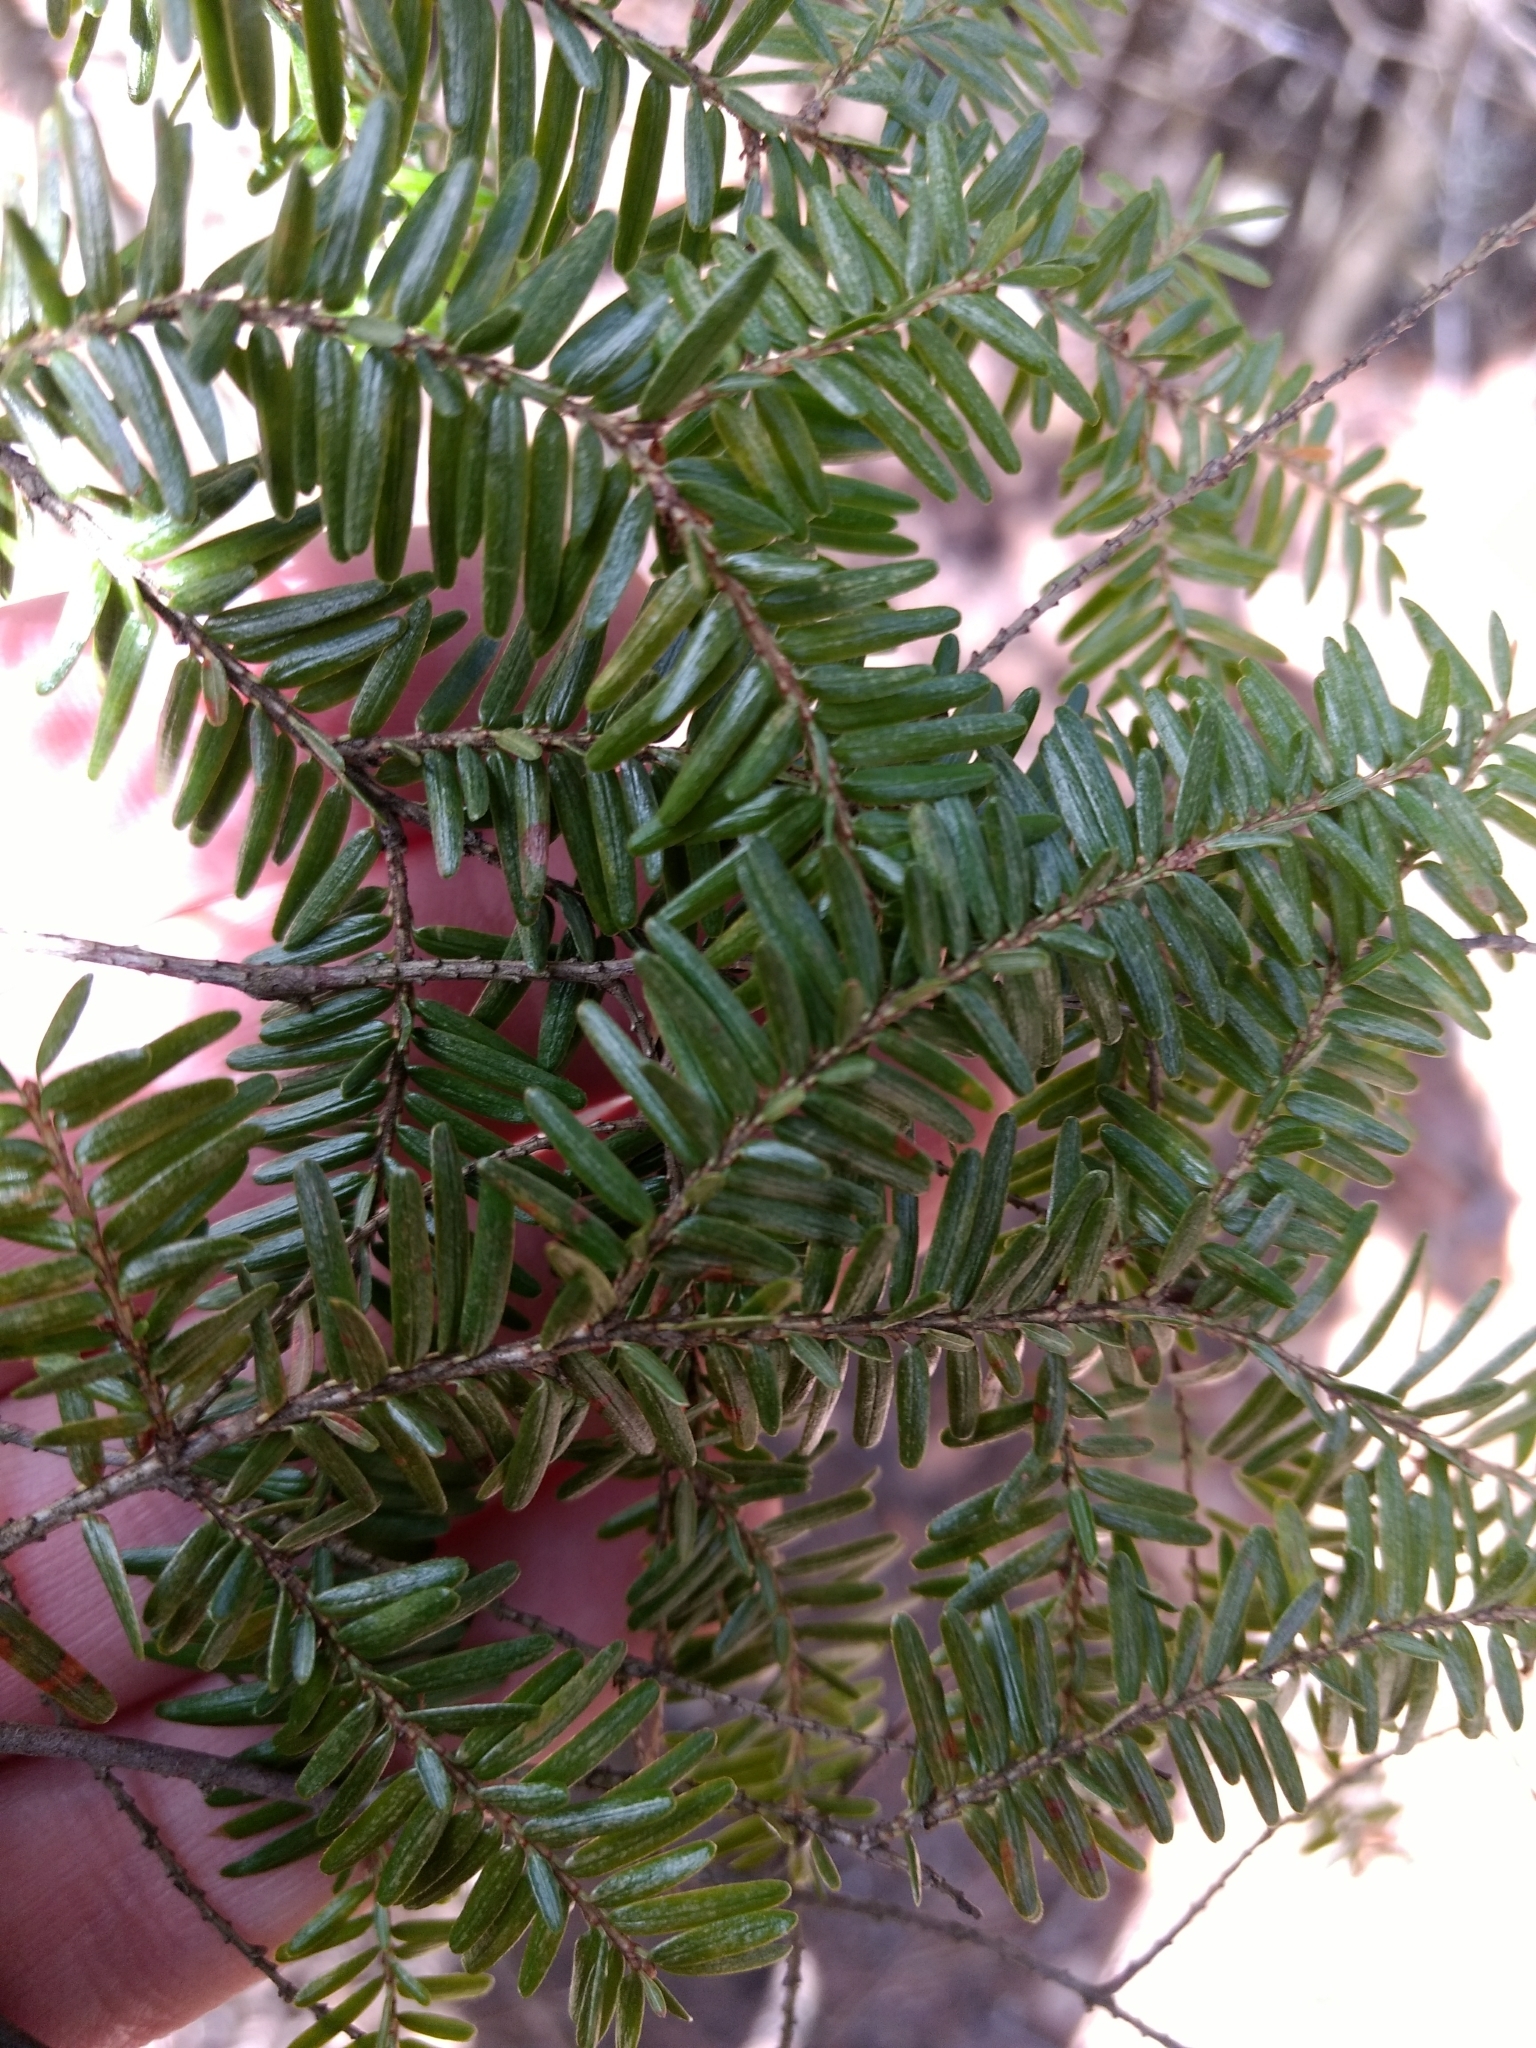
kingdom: Plantae
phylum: Tracheophyta
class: Pinopsida
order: Pinales
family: Pinaceae
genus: Tsuga
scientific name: Tsuga canadensis
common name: Eastern hemlock
